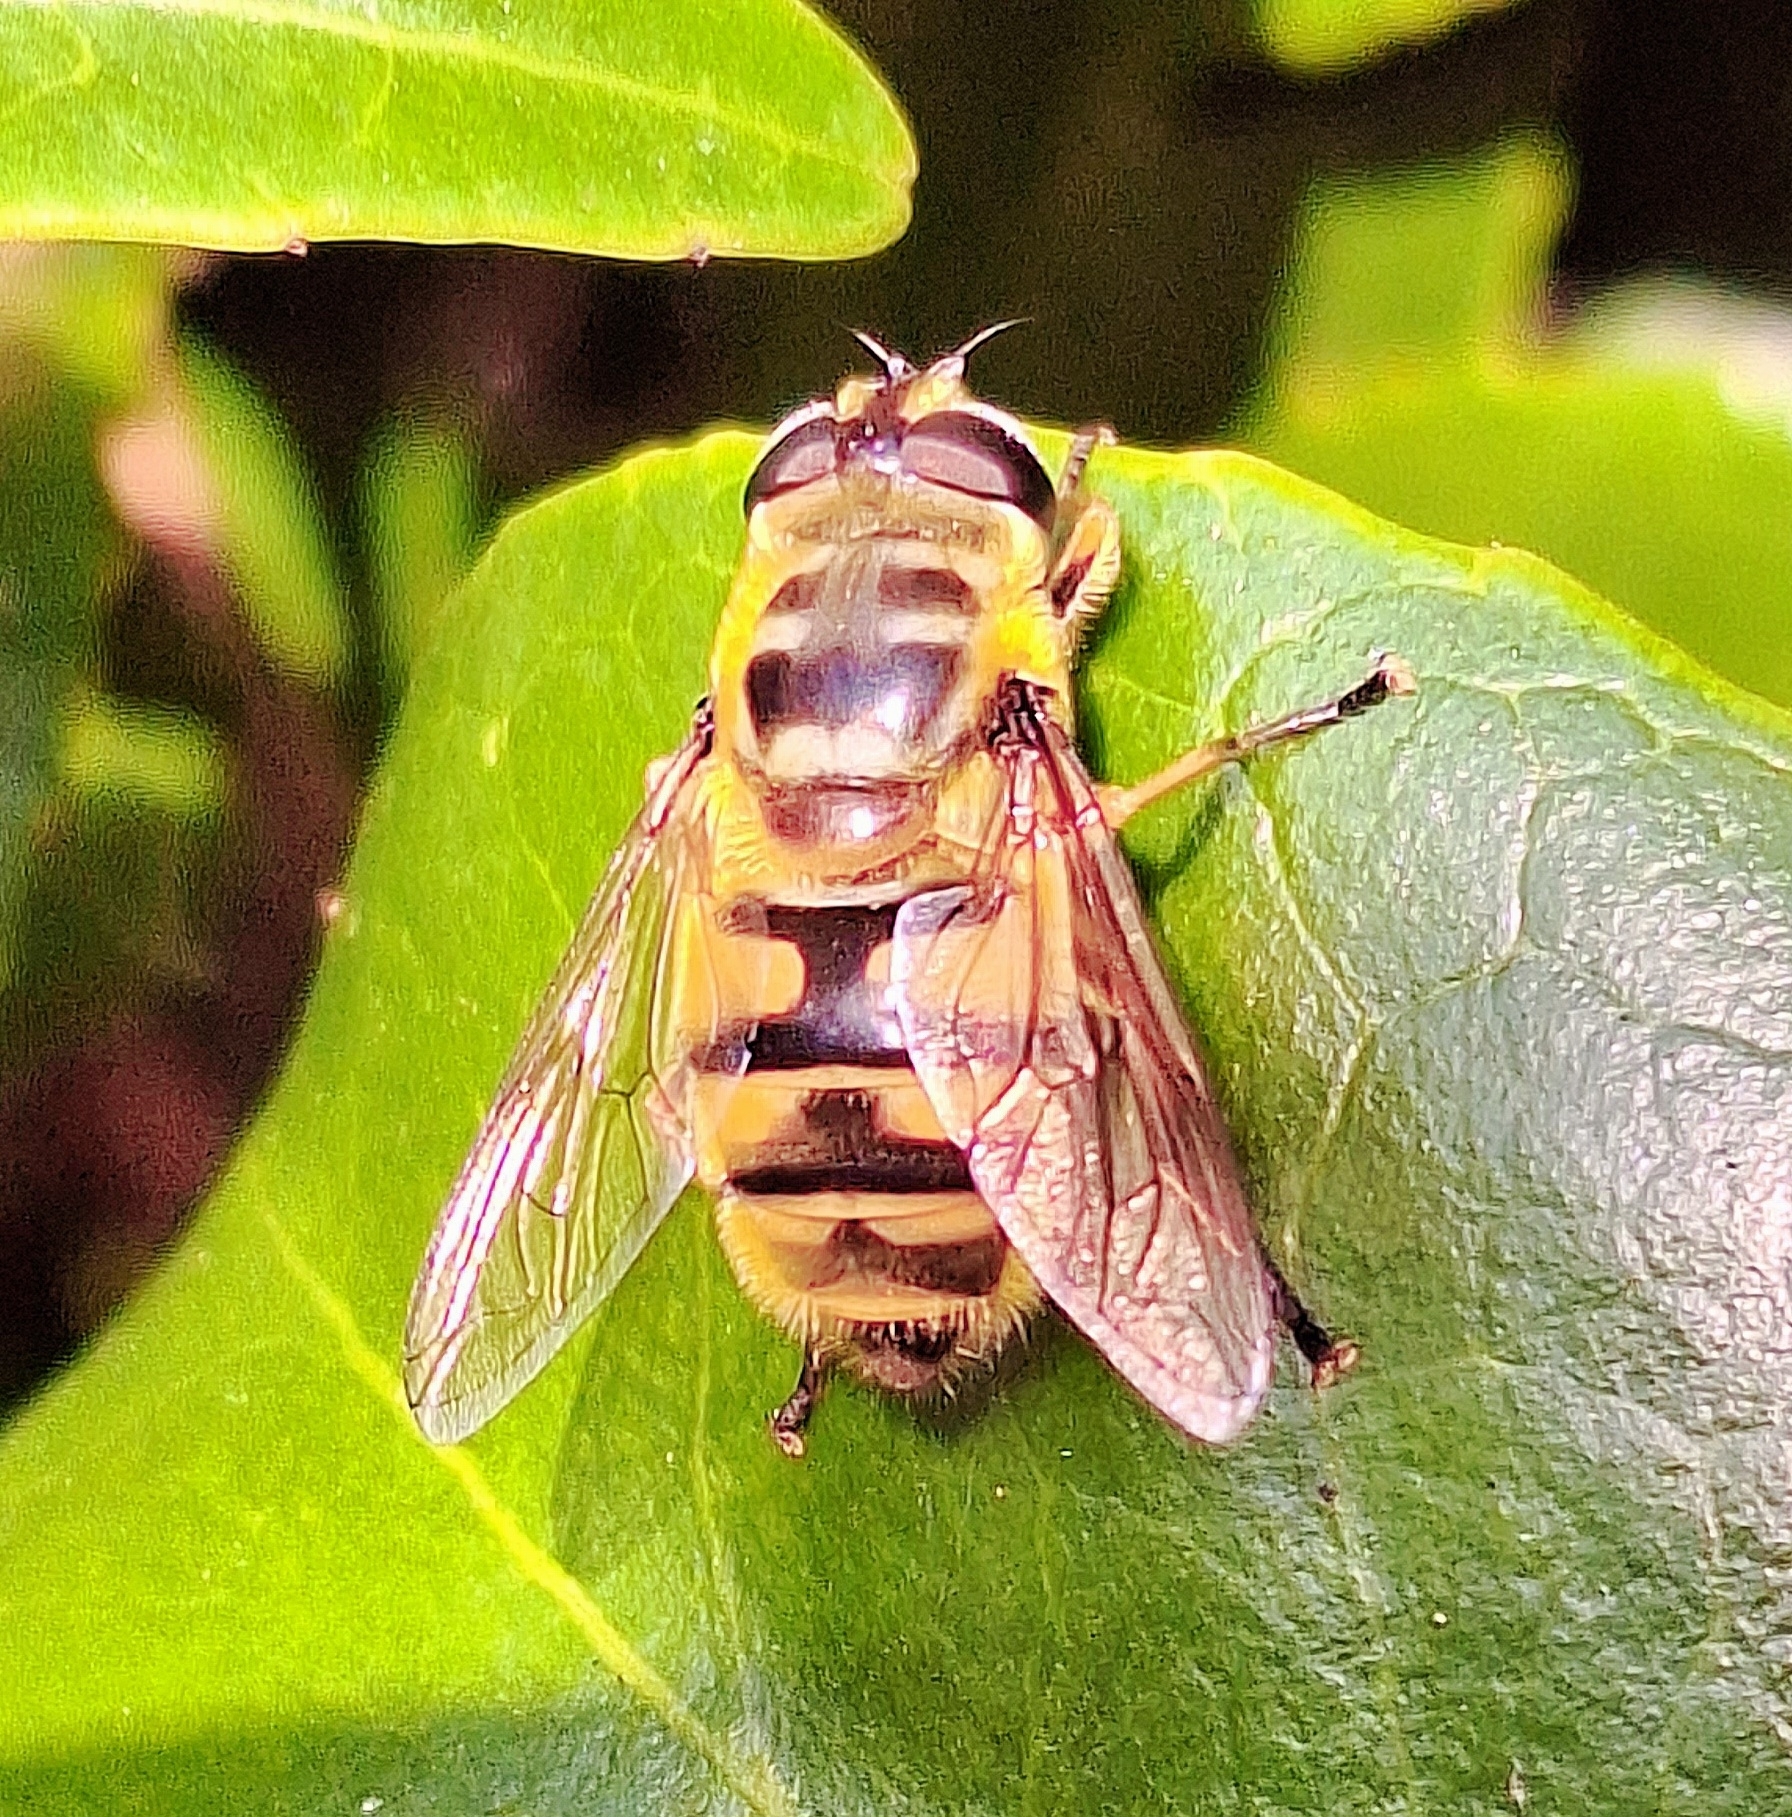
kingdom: Animalia
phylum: Arthropoda
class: Insecta
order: Diptera
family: Syrphidae
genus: Myathropa
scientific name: Myathropa florea
